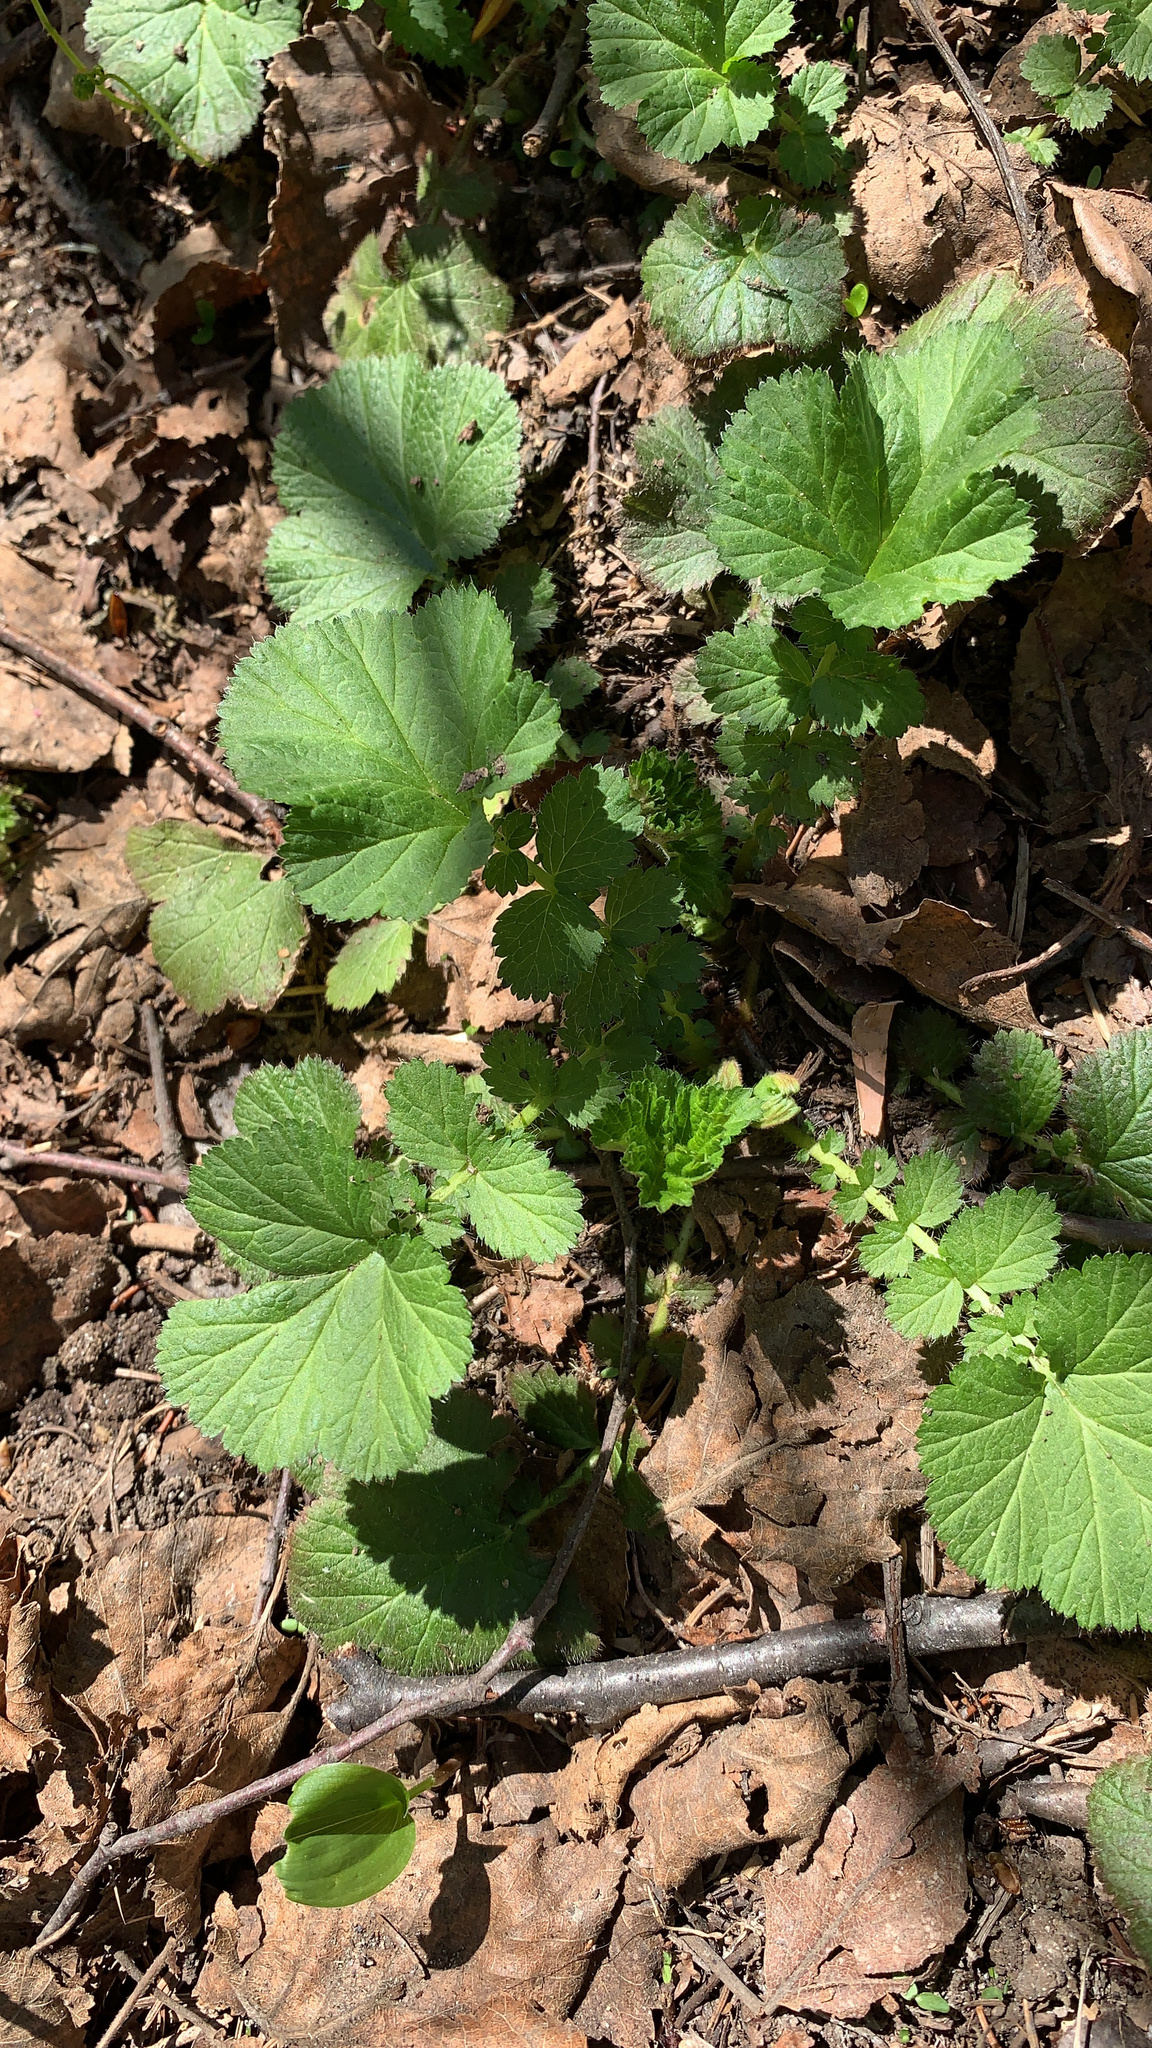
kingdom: Plantae
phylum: Tracheophyta
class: Magnoliopsida
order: Rosales
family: Rosaceae
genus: Geum
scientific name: Geum macrophyllum
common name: Large-leaved avens
